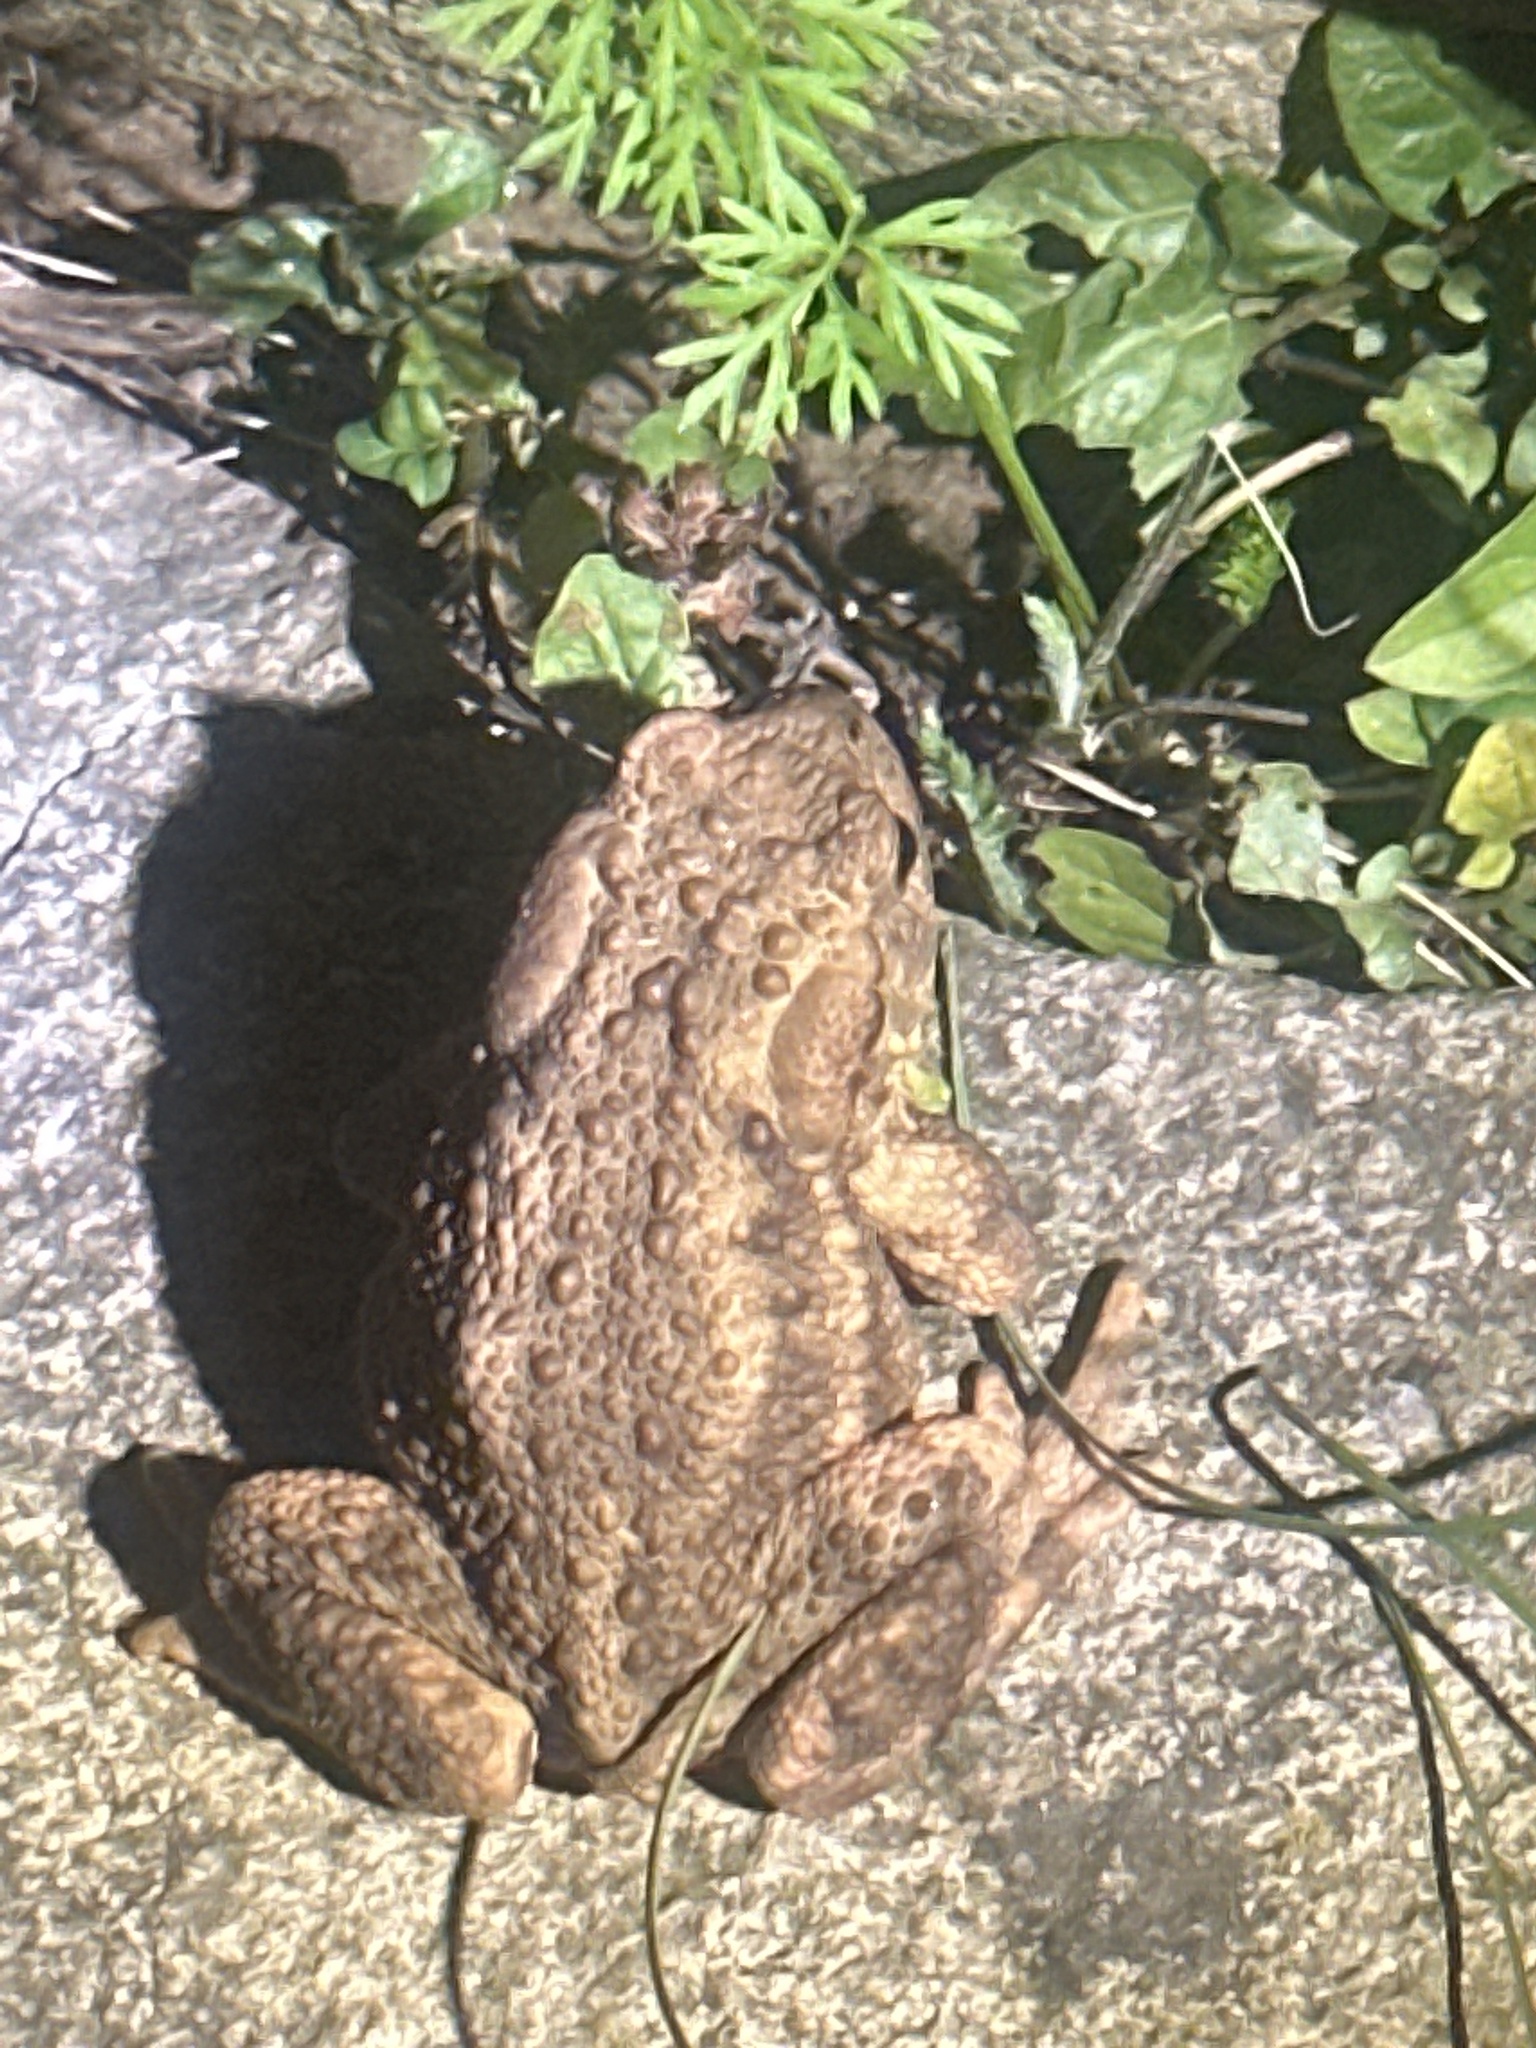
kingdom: Animalia
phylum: Chordata
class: Amphibia
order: Anura
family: Bufonidae
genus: Bufo
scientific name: Bufo bufo
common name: Common toad
